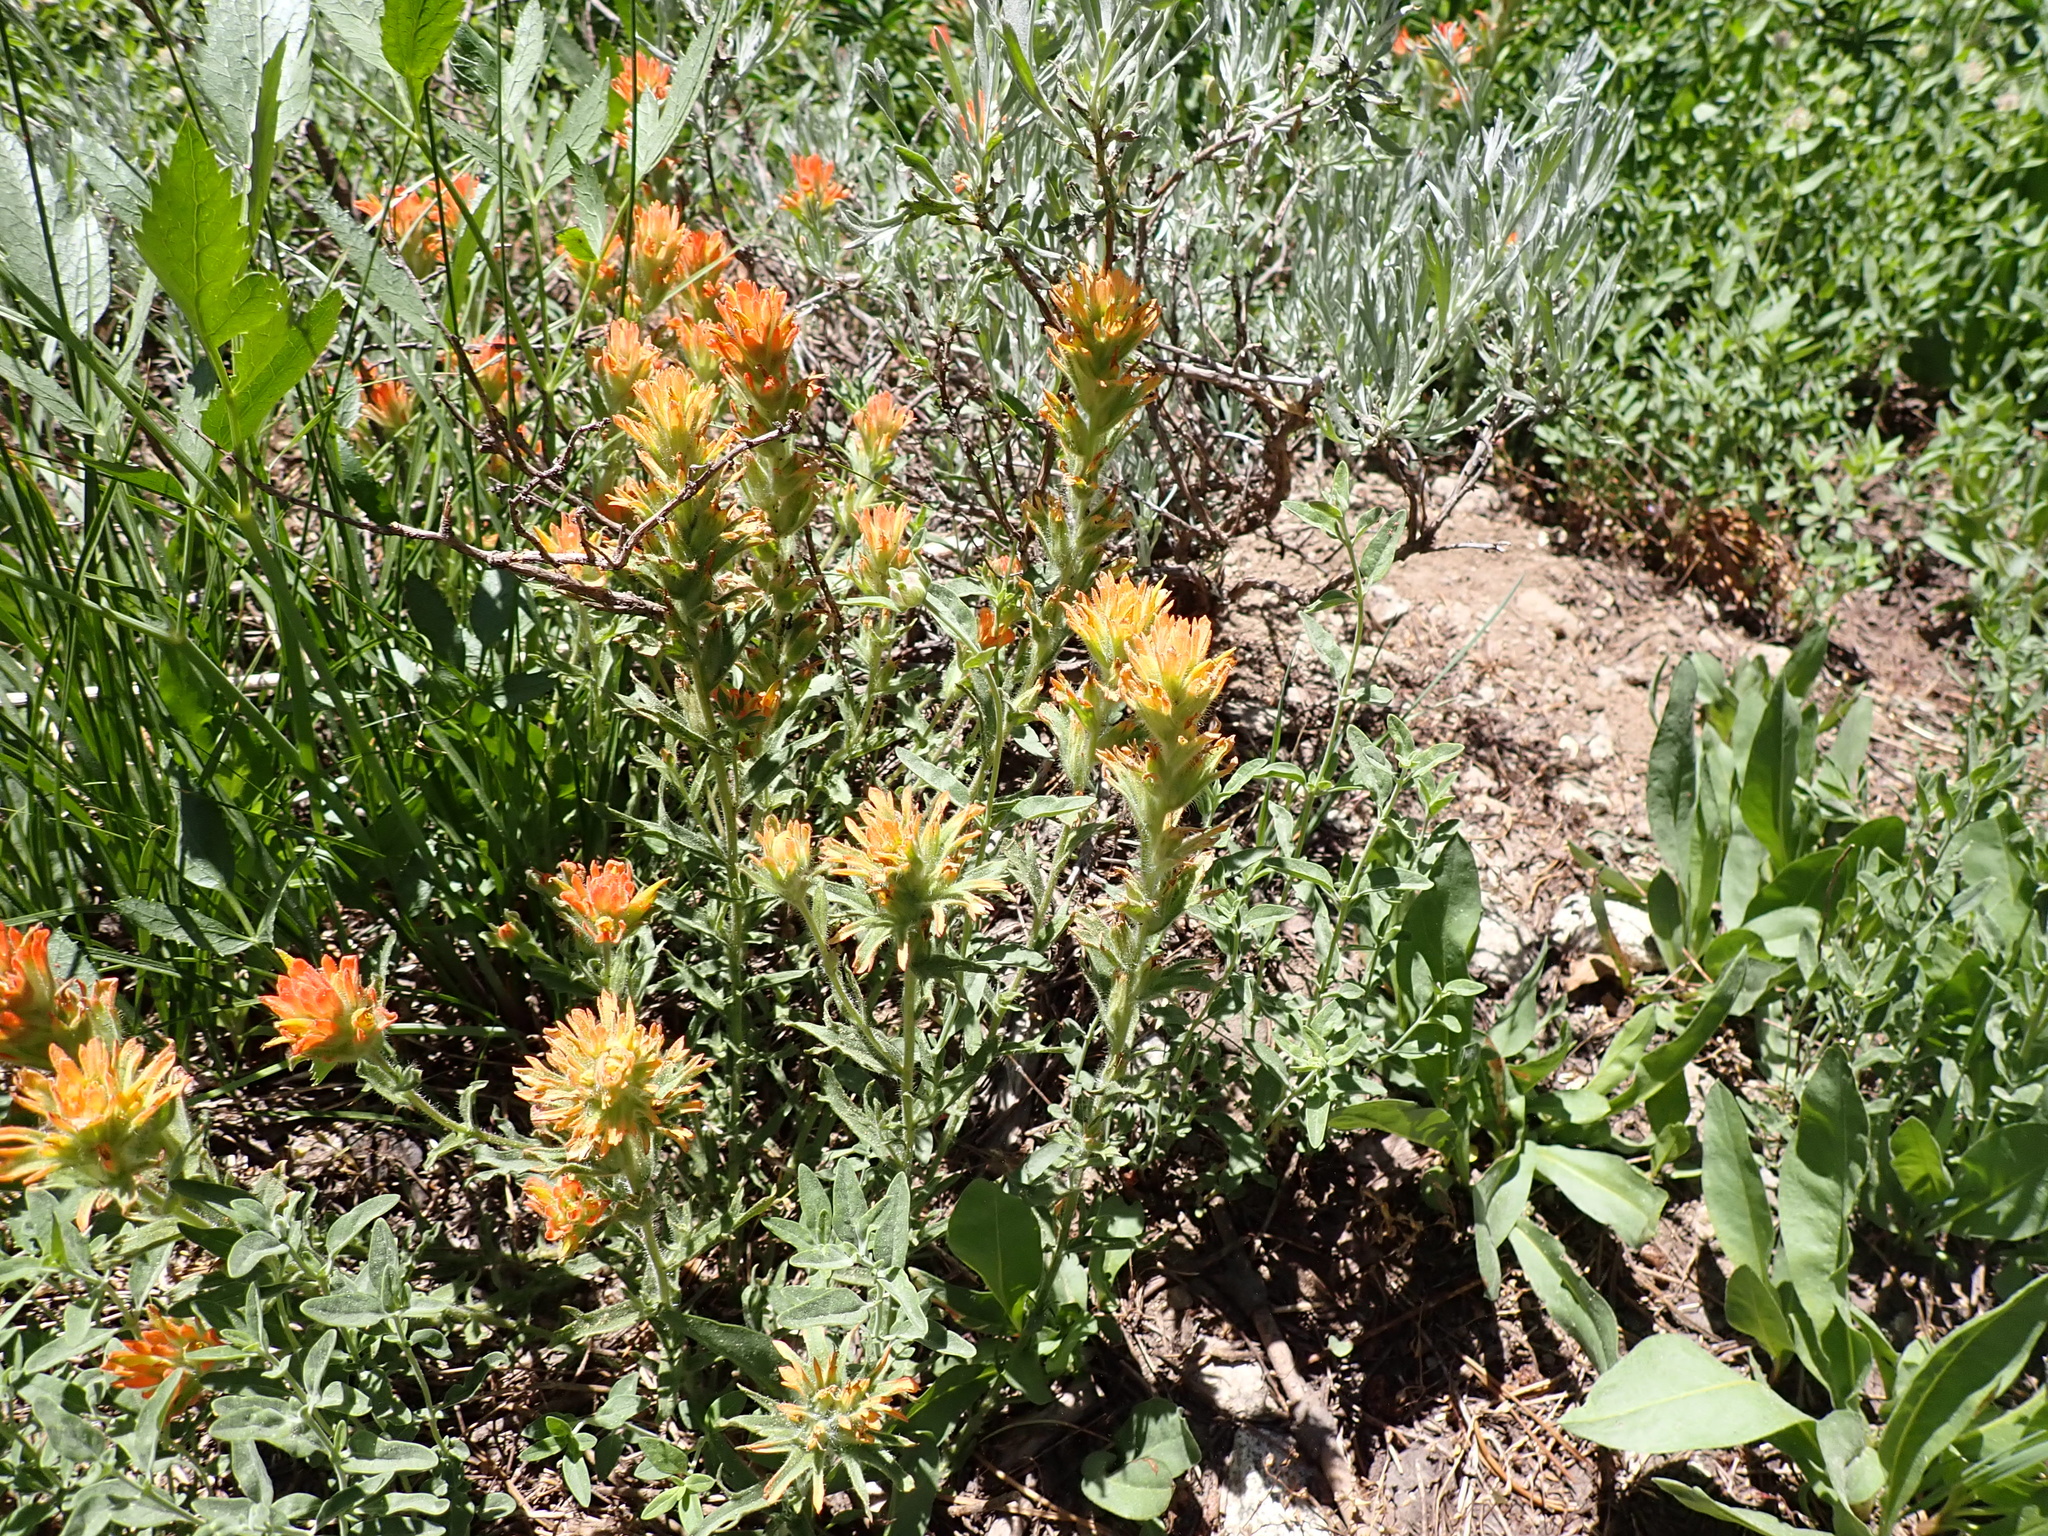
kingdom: Plantae
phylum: Tracheophyta
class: Magnoliopsida
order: Lamiales
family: Orobanchaceae
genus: Castilleja
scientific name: Castilleja applegatei
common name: Wavy-leaf paintbrush
